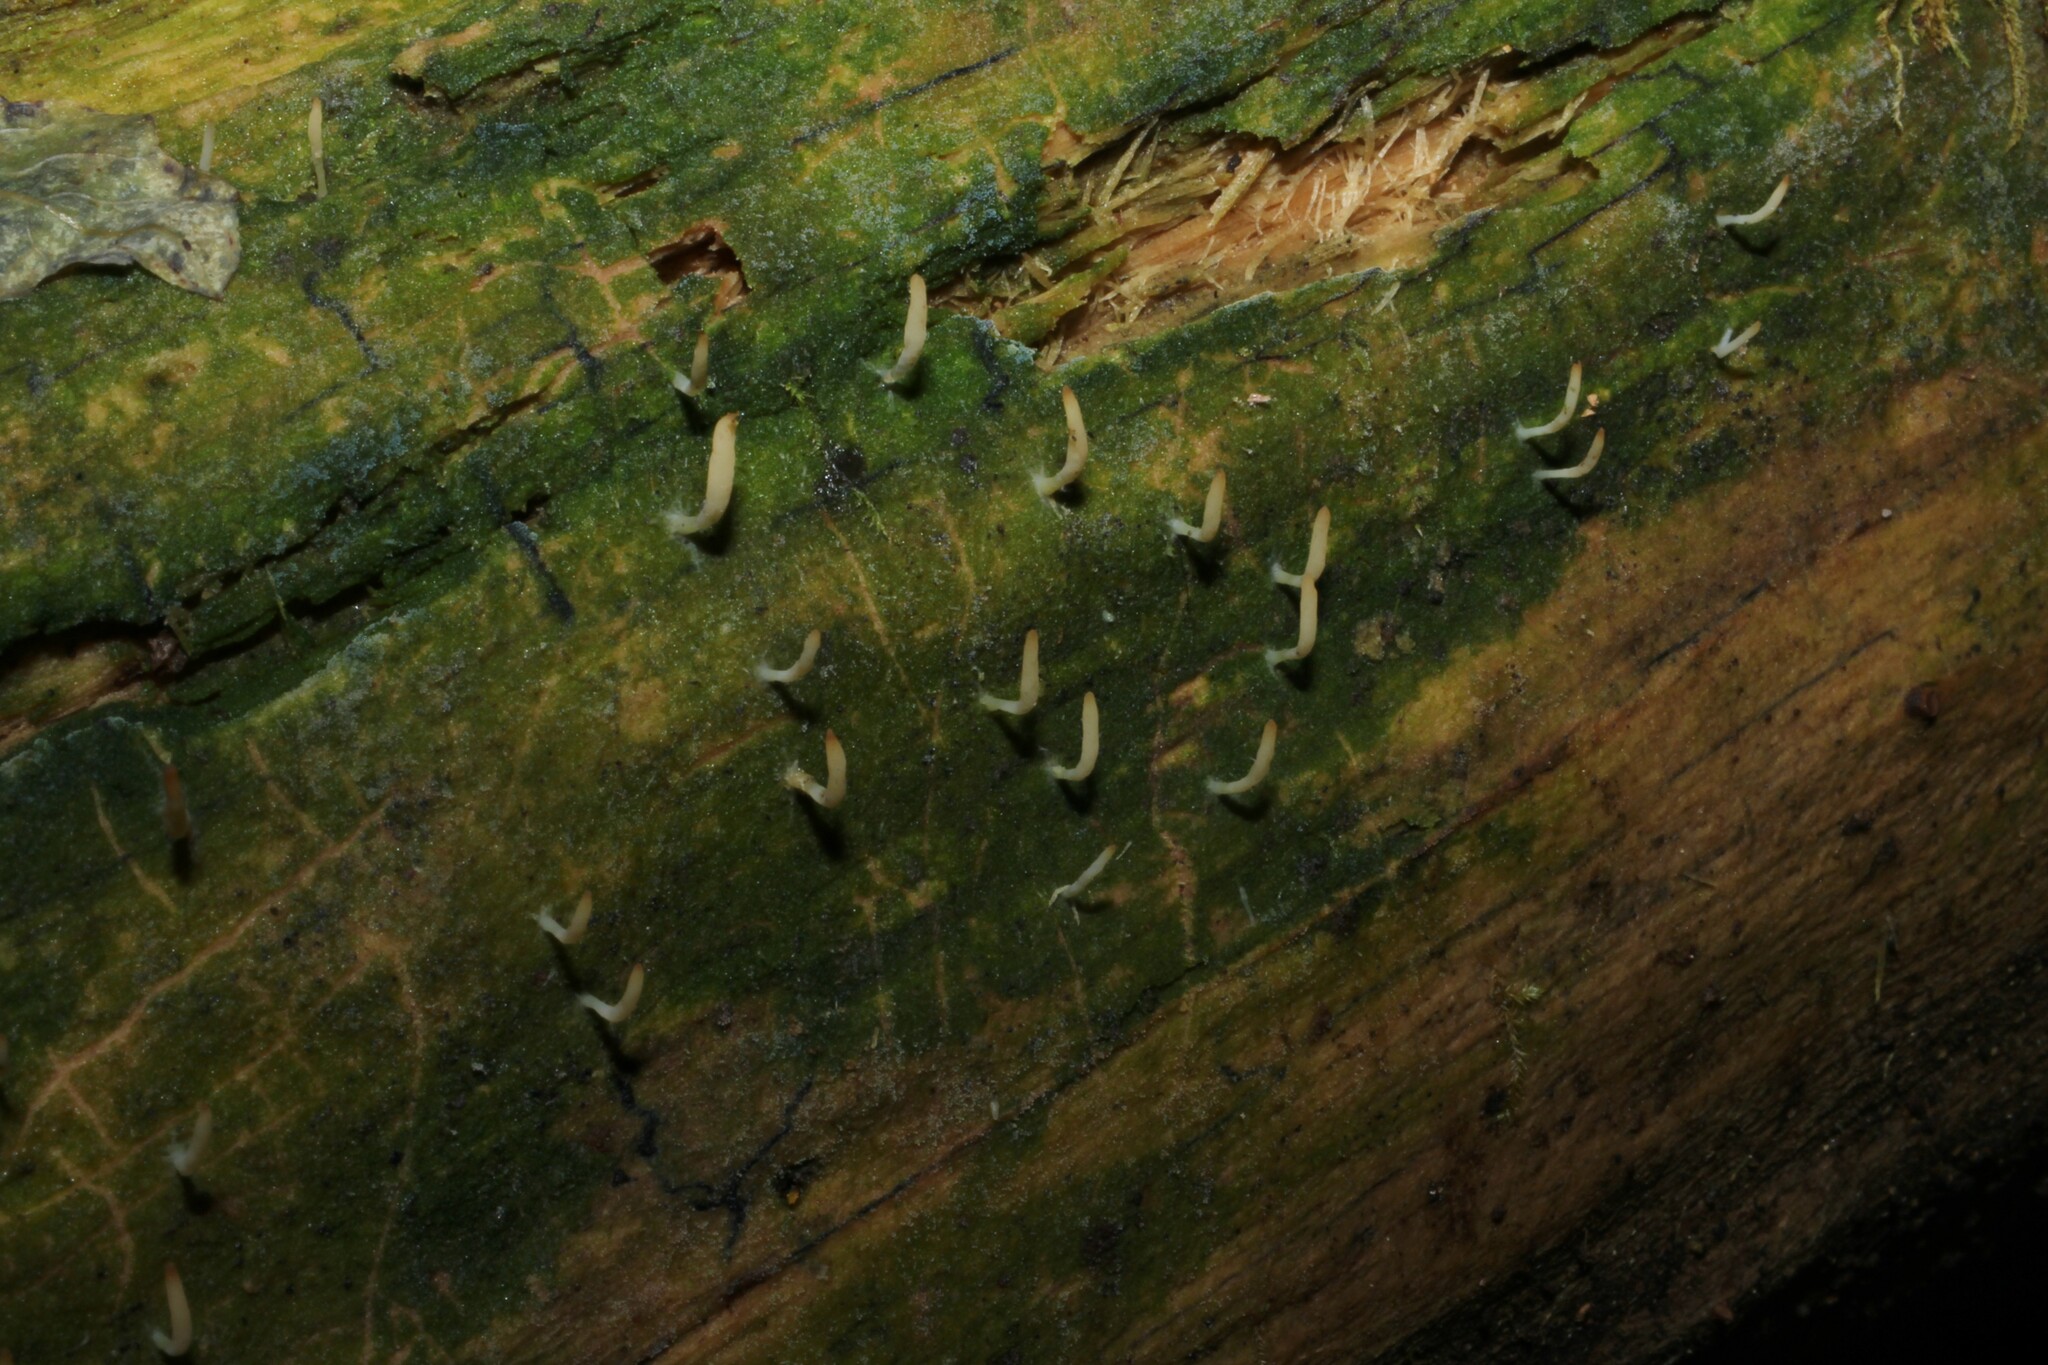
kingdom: Fungi
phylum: Basidiomycota
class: Agaricomycetes
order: Cantharellales
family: Hydnaceae
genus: Multiclavula
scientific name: Multiclavula mucida
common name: White green-algae coral
